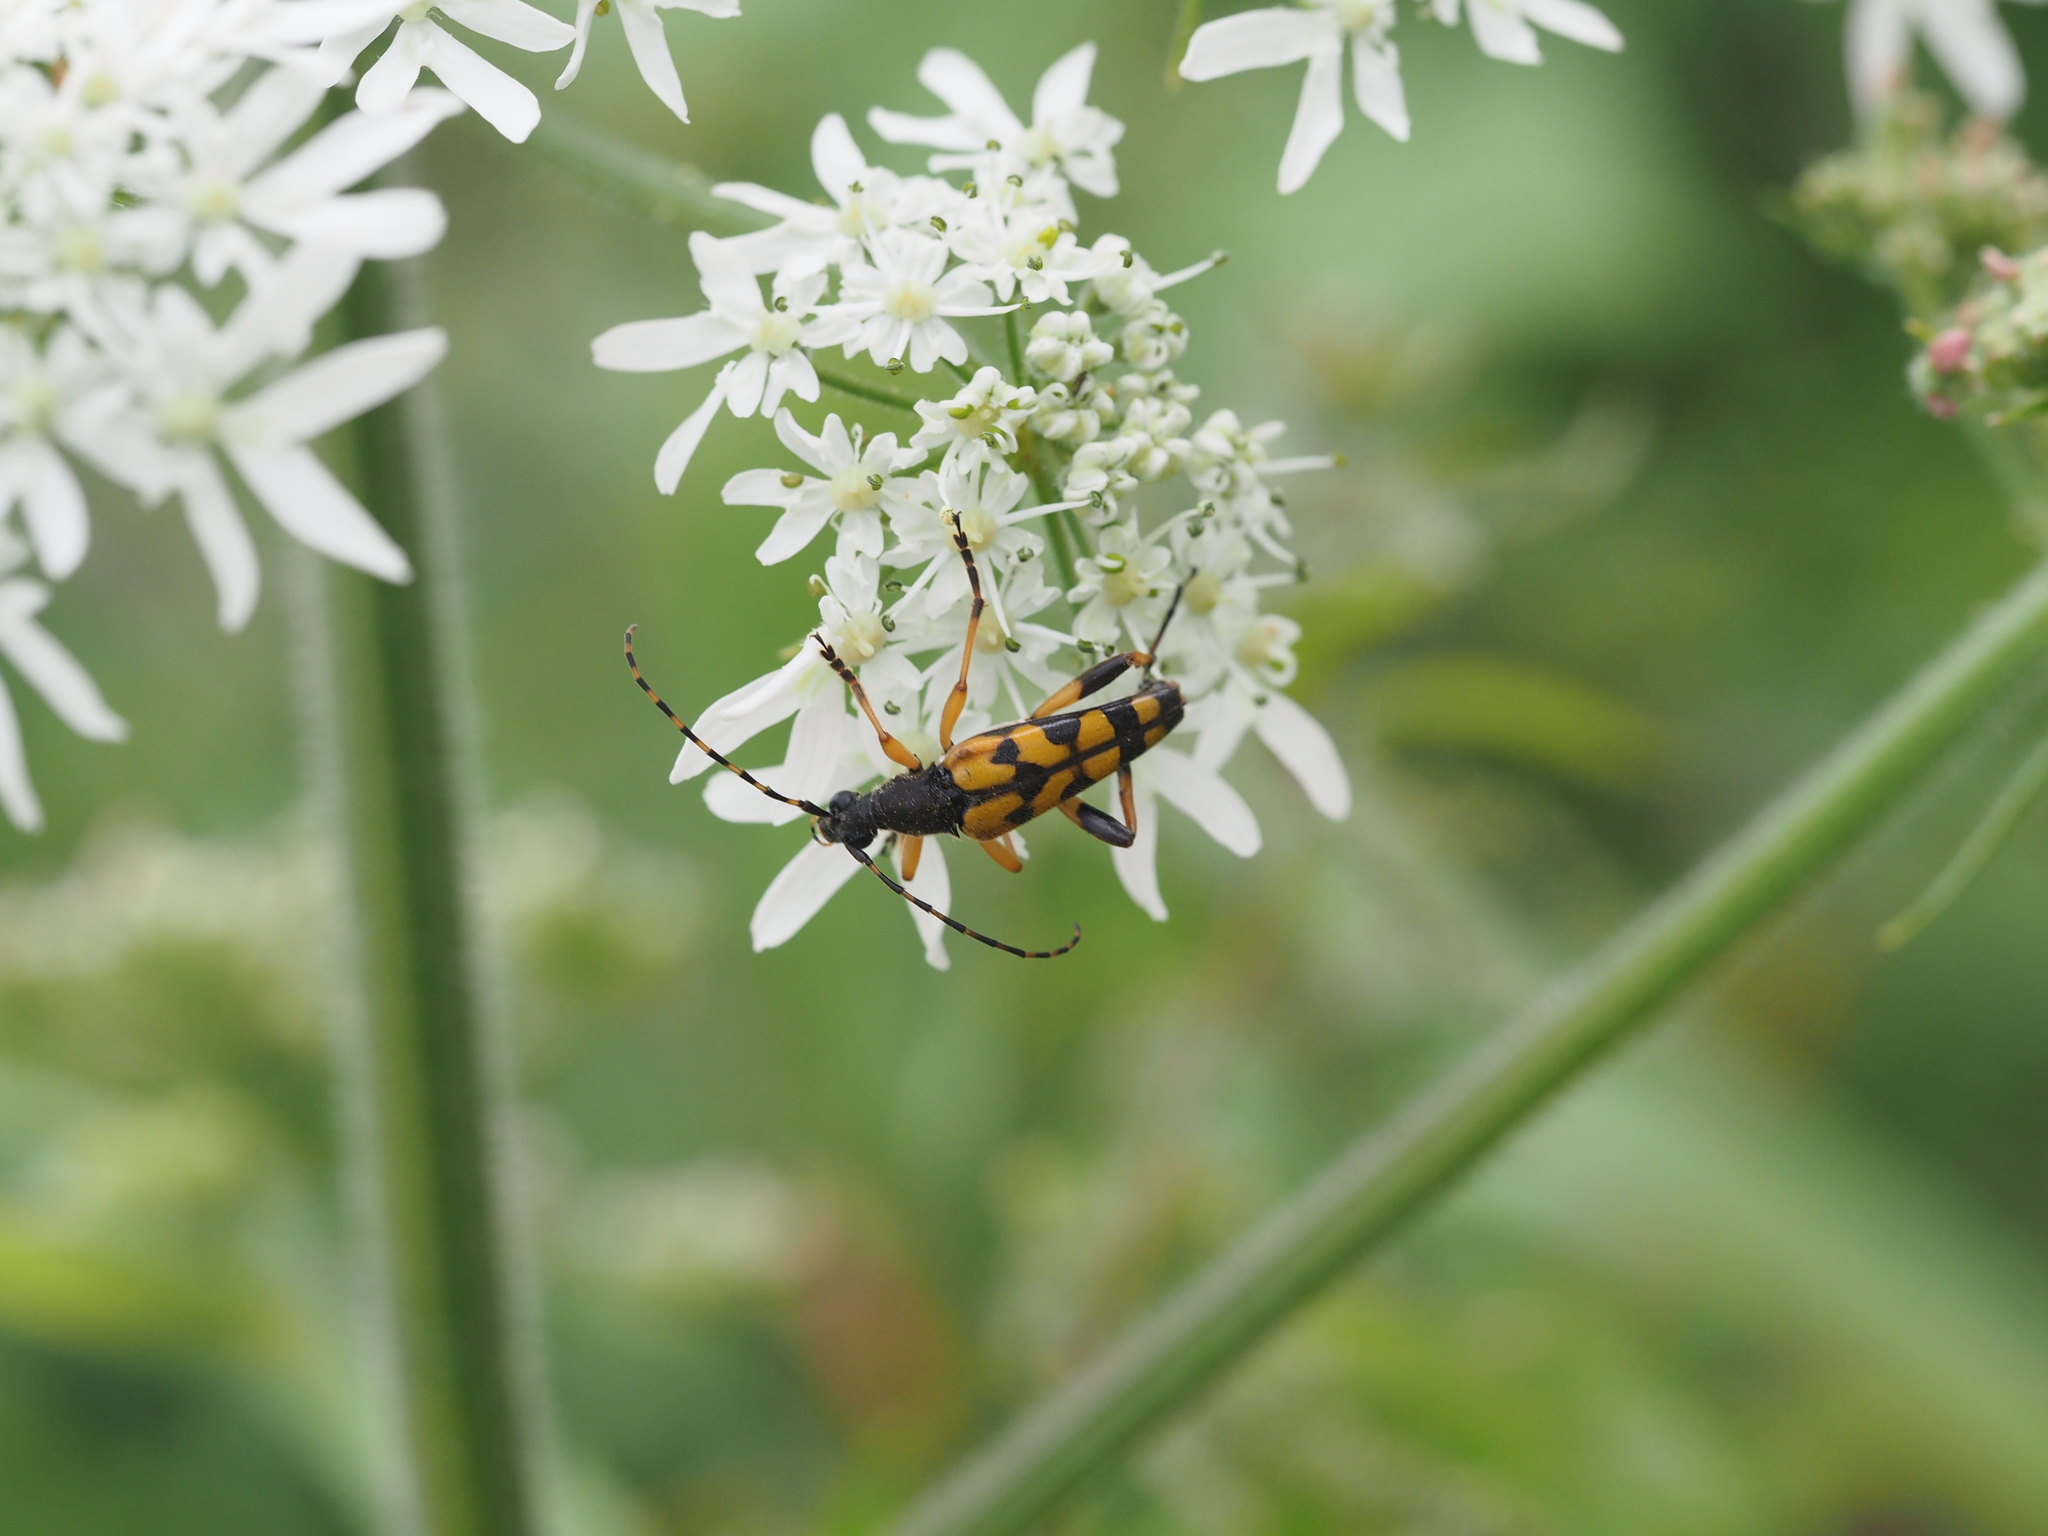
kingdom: Animalia
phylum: Arthropoda
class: Insecta
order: Coleoptera
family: Cerambycidae
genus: Rutpela
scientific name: Rutpela maculata
